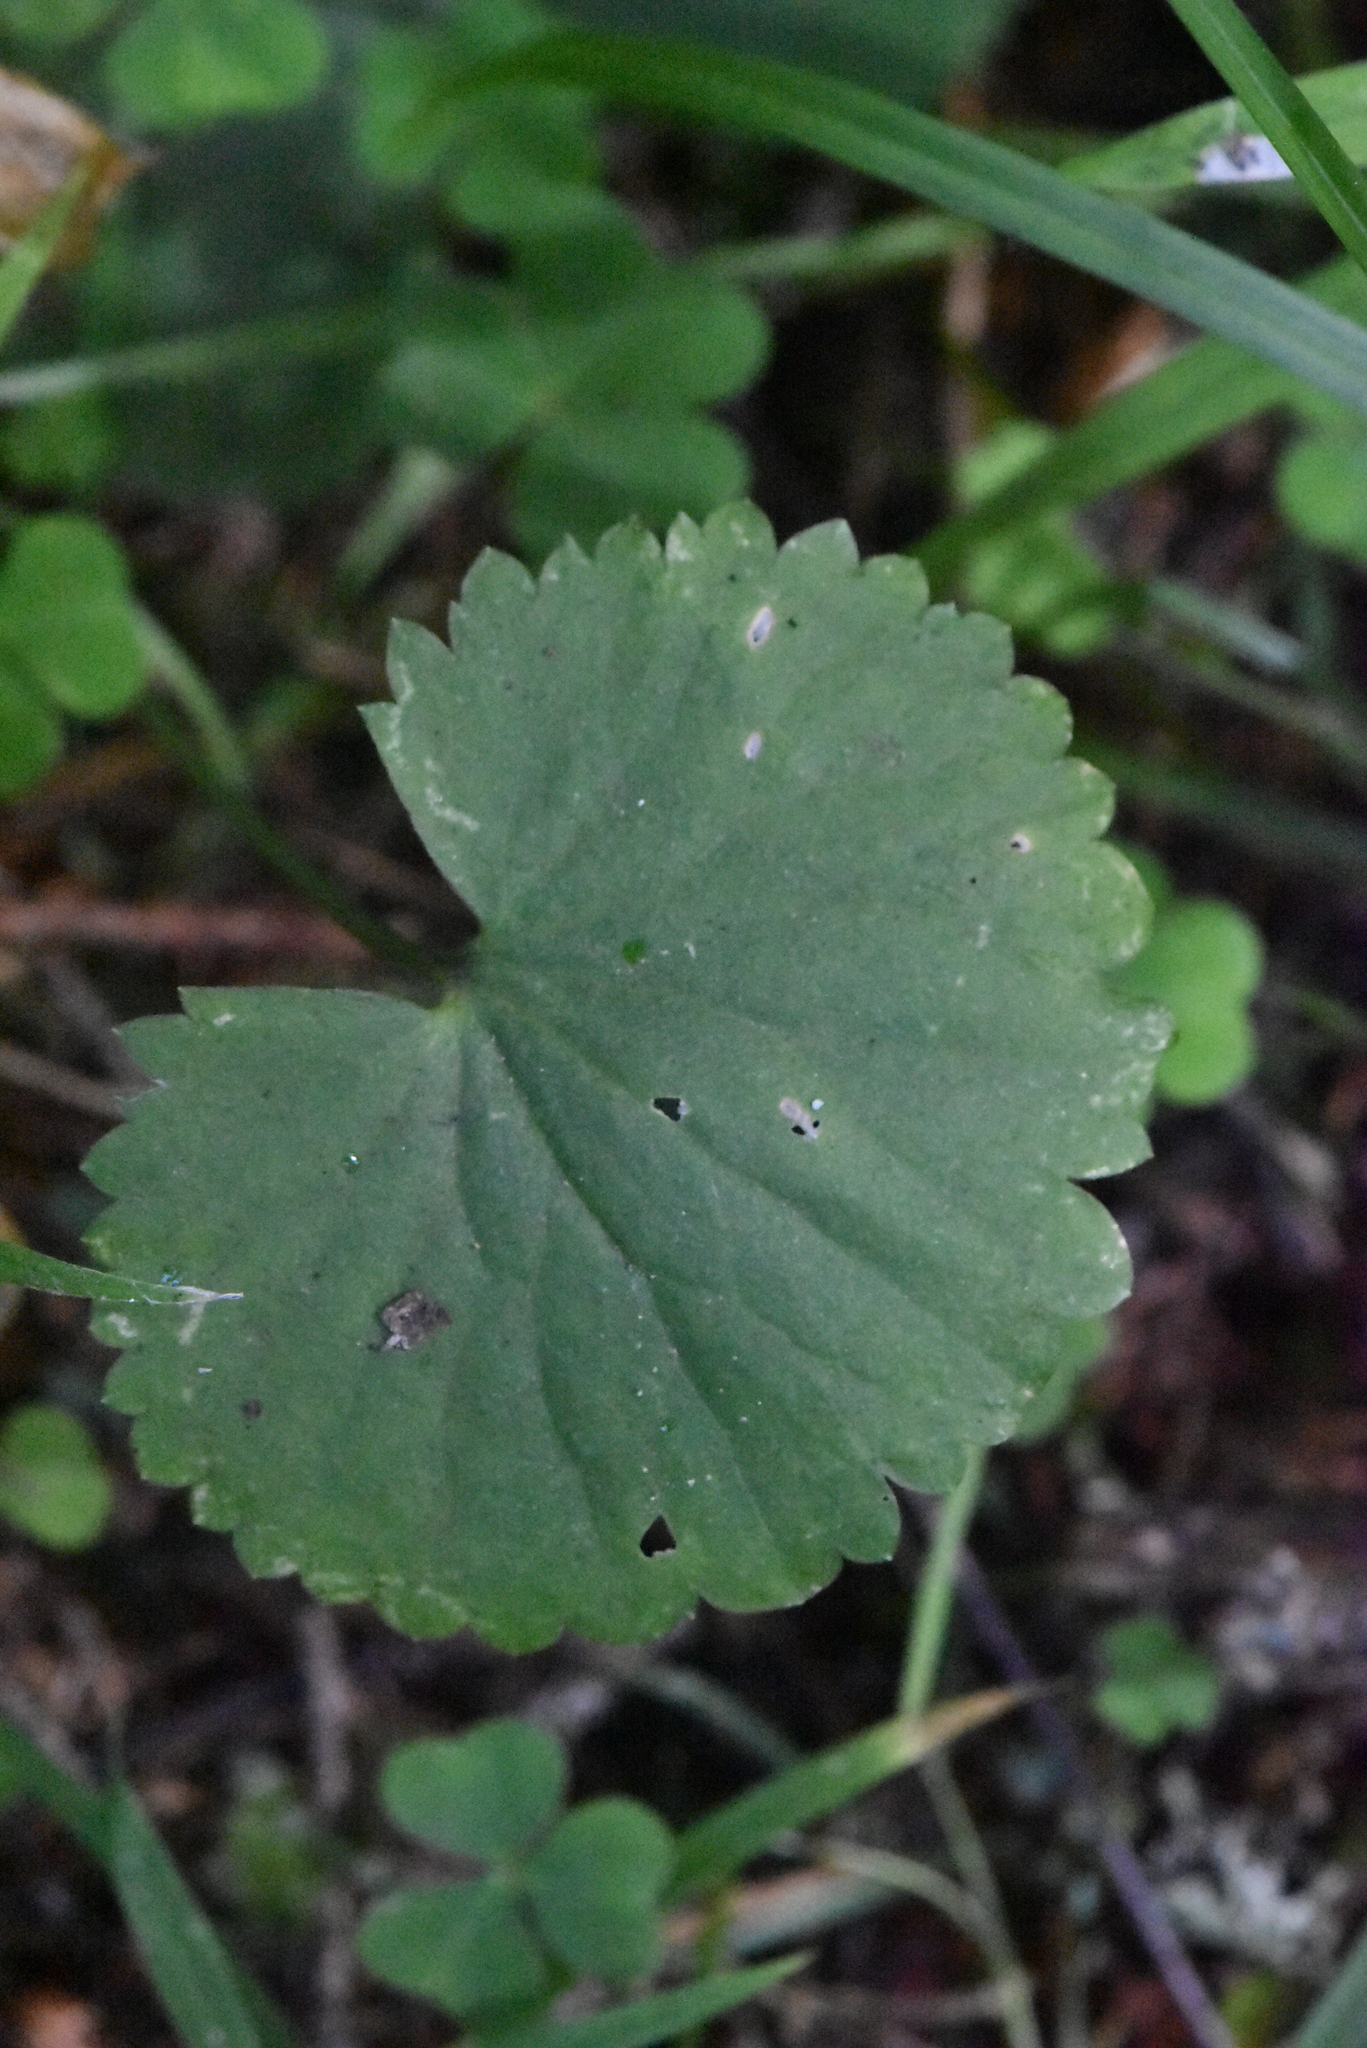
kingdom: Plantae
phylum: Tracheophyta
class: Magnoliopsida
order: Ranunculales
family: Ranunculaceae
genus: Ranunculus
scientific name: Ranunculus cassubicus
